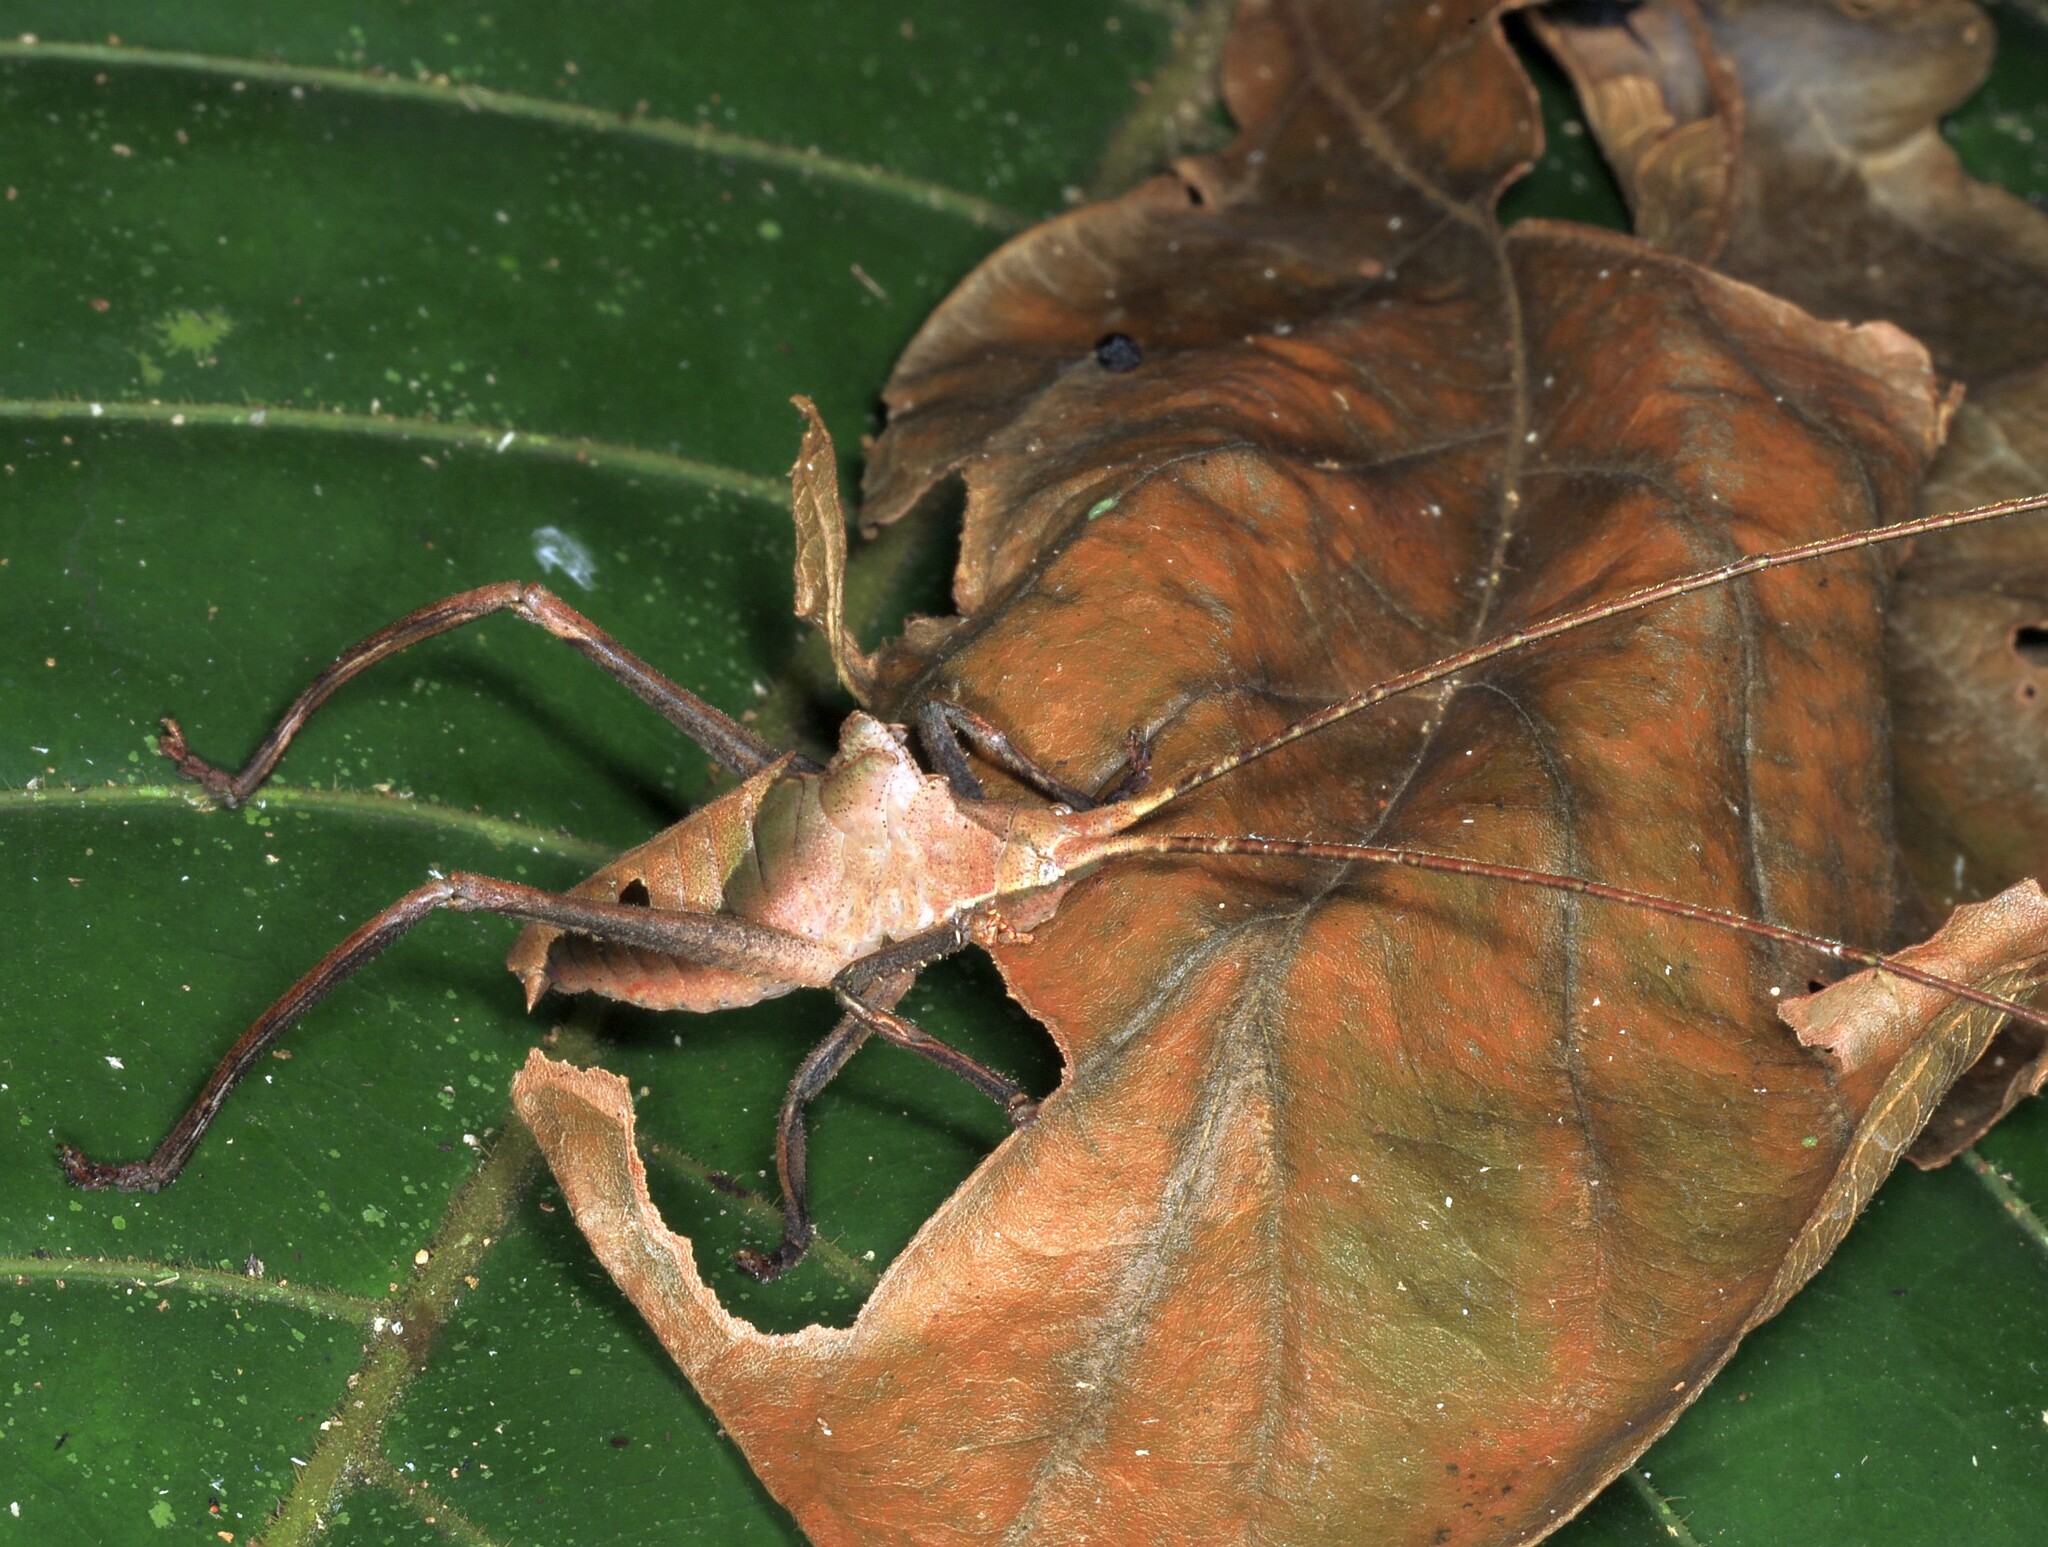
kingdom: Animalia
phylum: Arthropoda
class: Insecta
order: Orthoptera
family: Tettigoniidae
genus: Pterochroza
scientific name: Pterochroza ocellata
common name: Peacock katydid
